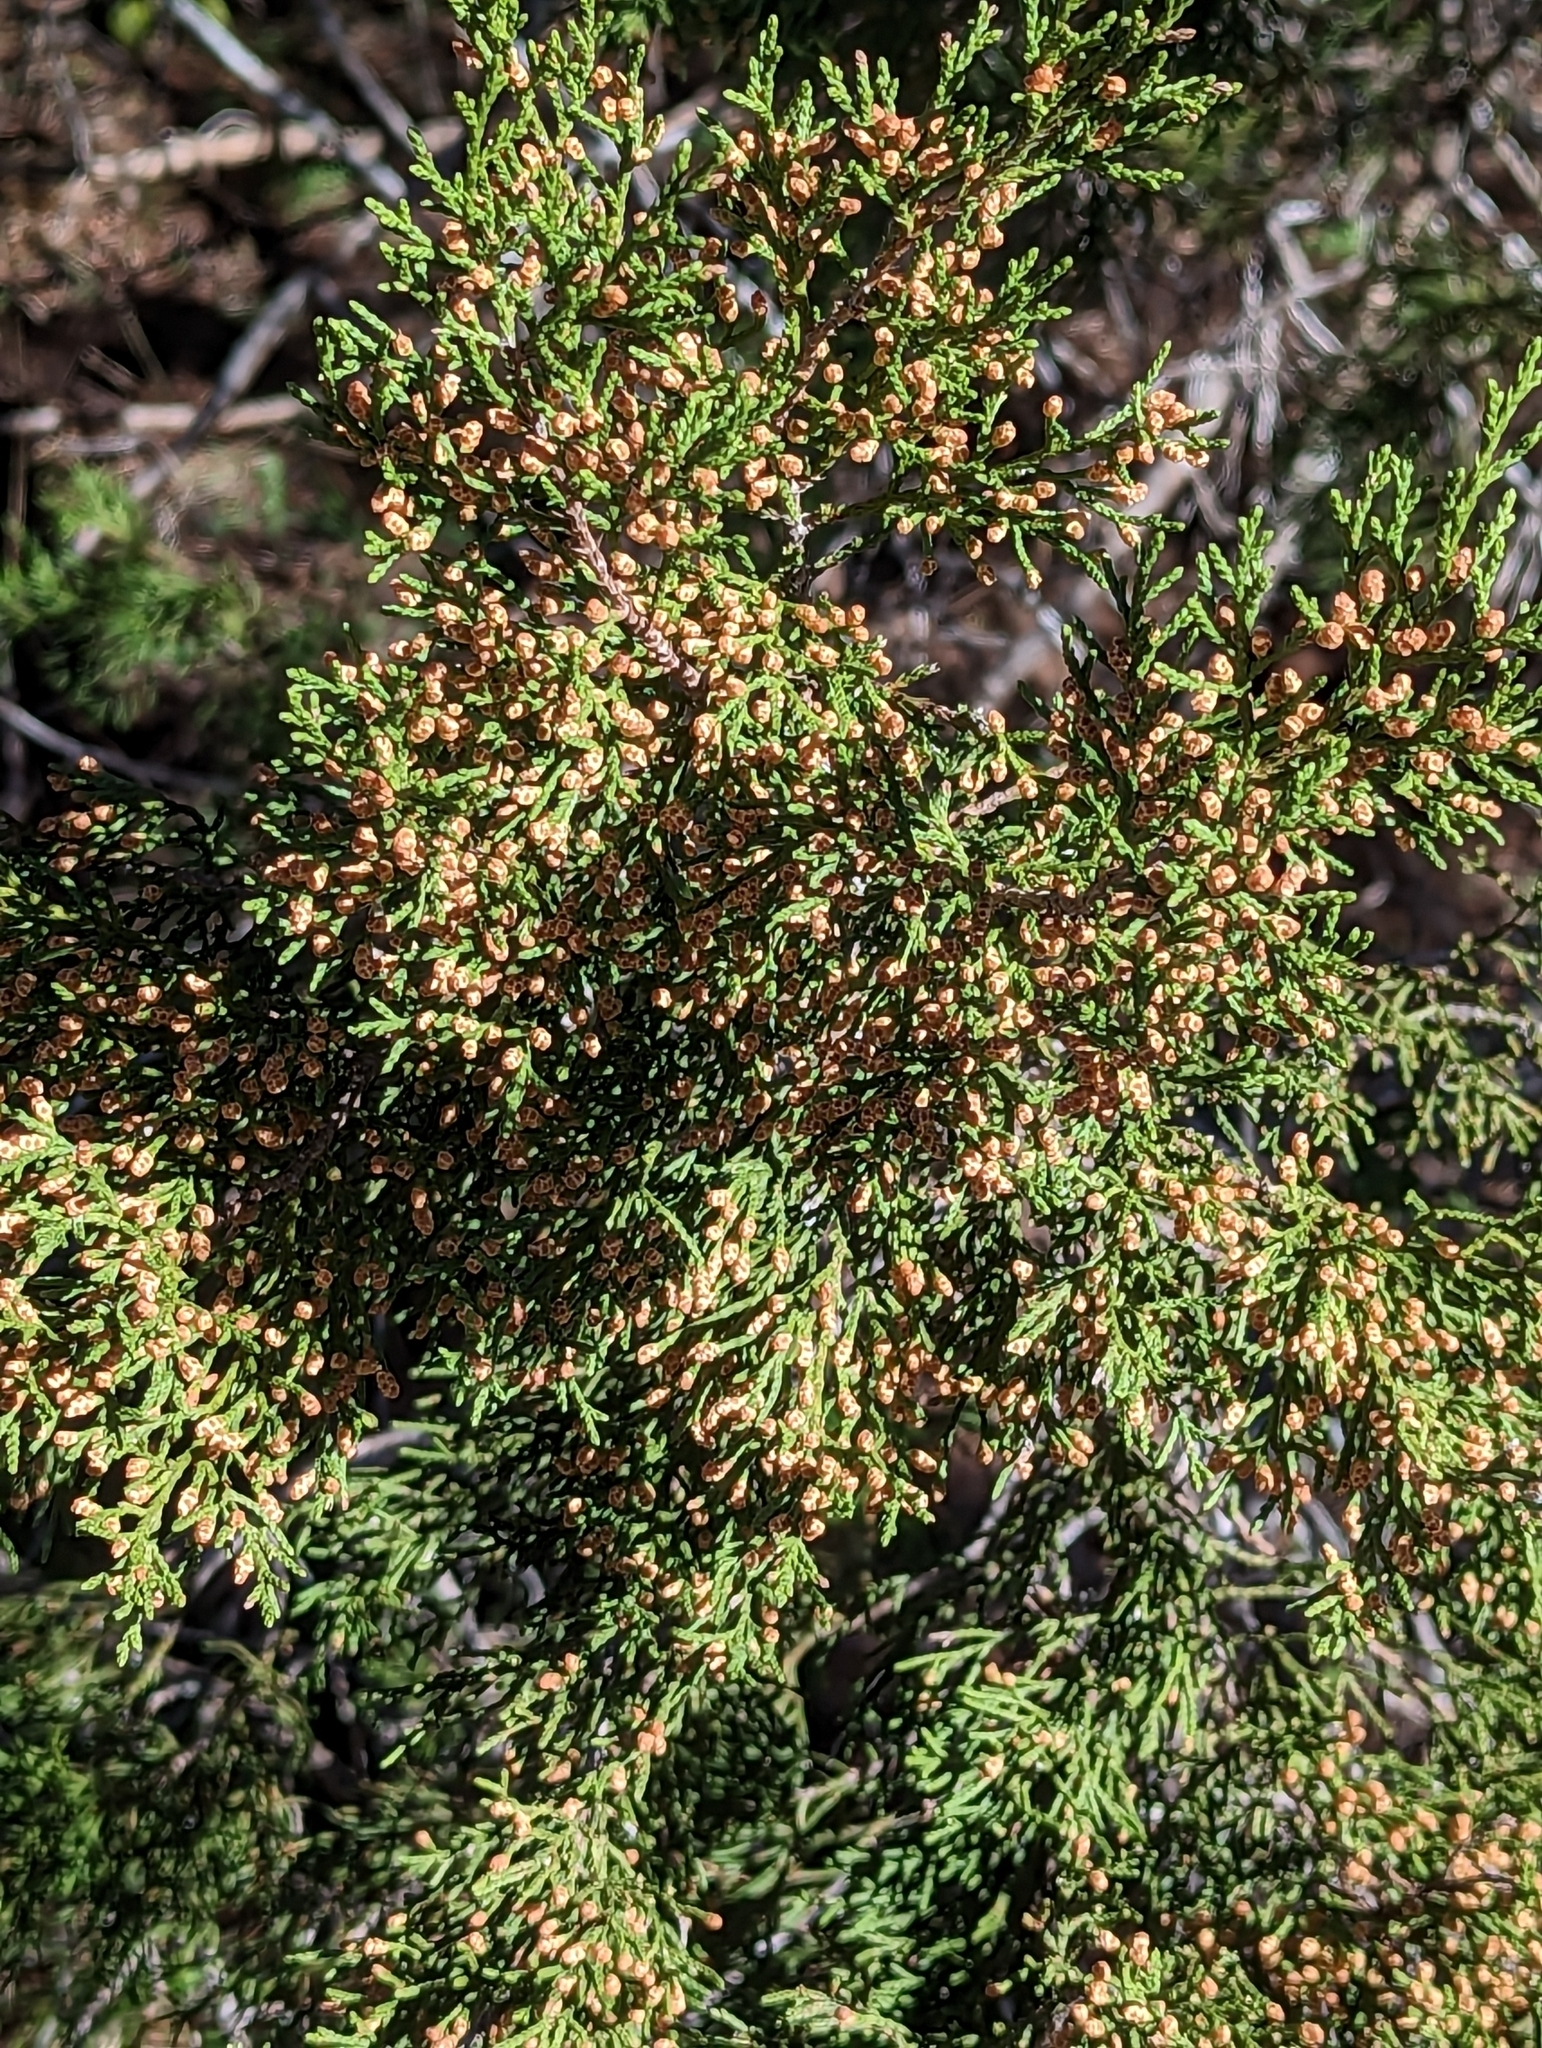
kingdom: Plantae
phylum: Tracheophyta
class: Pinopsida
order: Pinales
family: Cupressaceae
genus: Juniperus
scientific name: Juniperus ashei
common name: Mexican juniper
